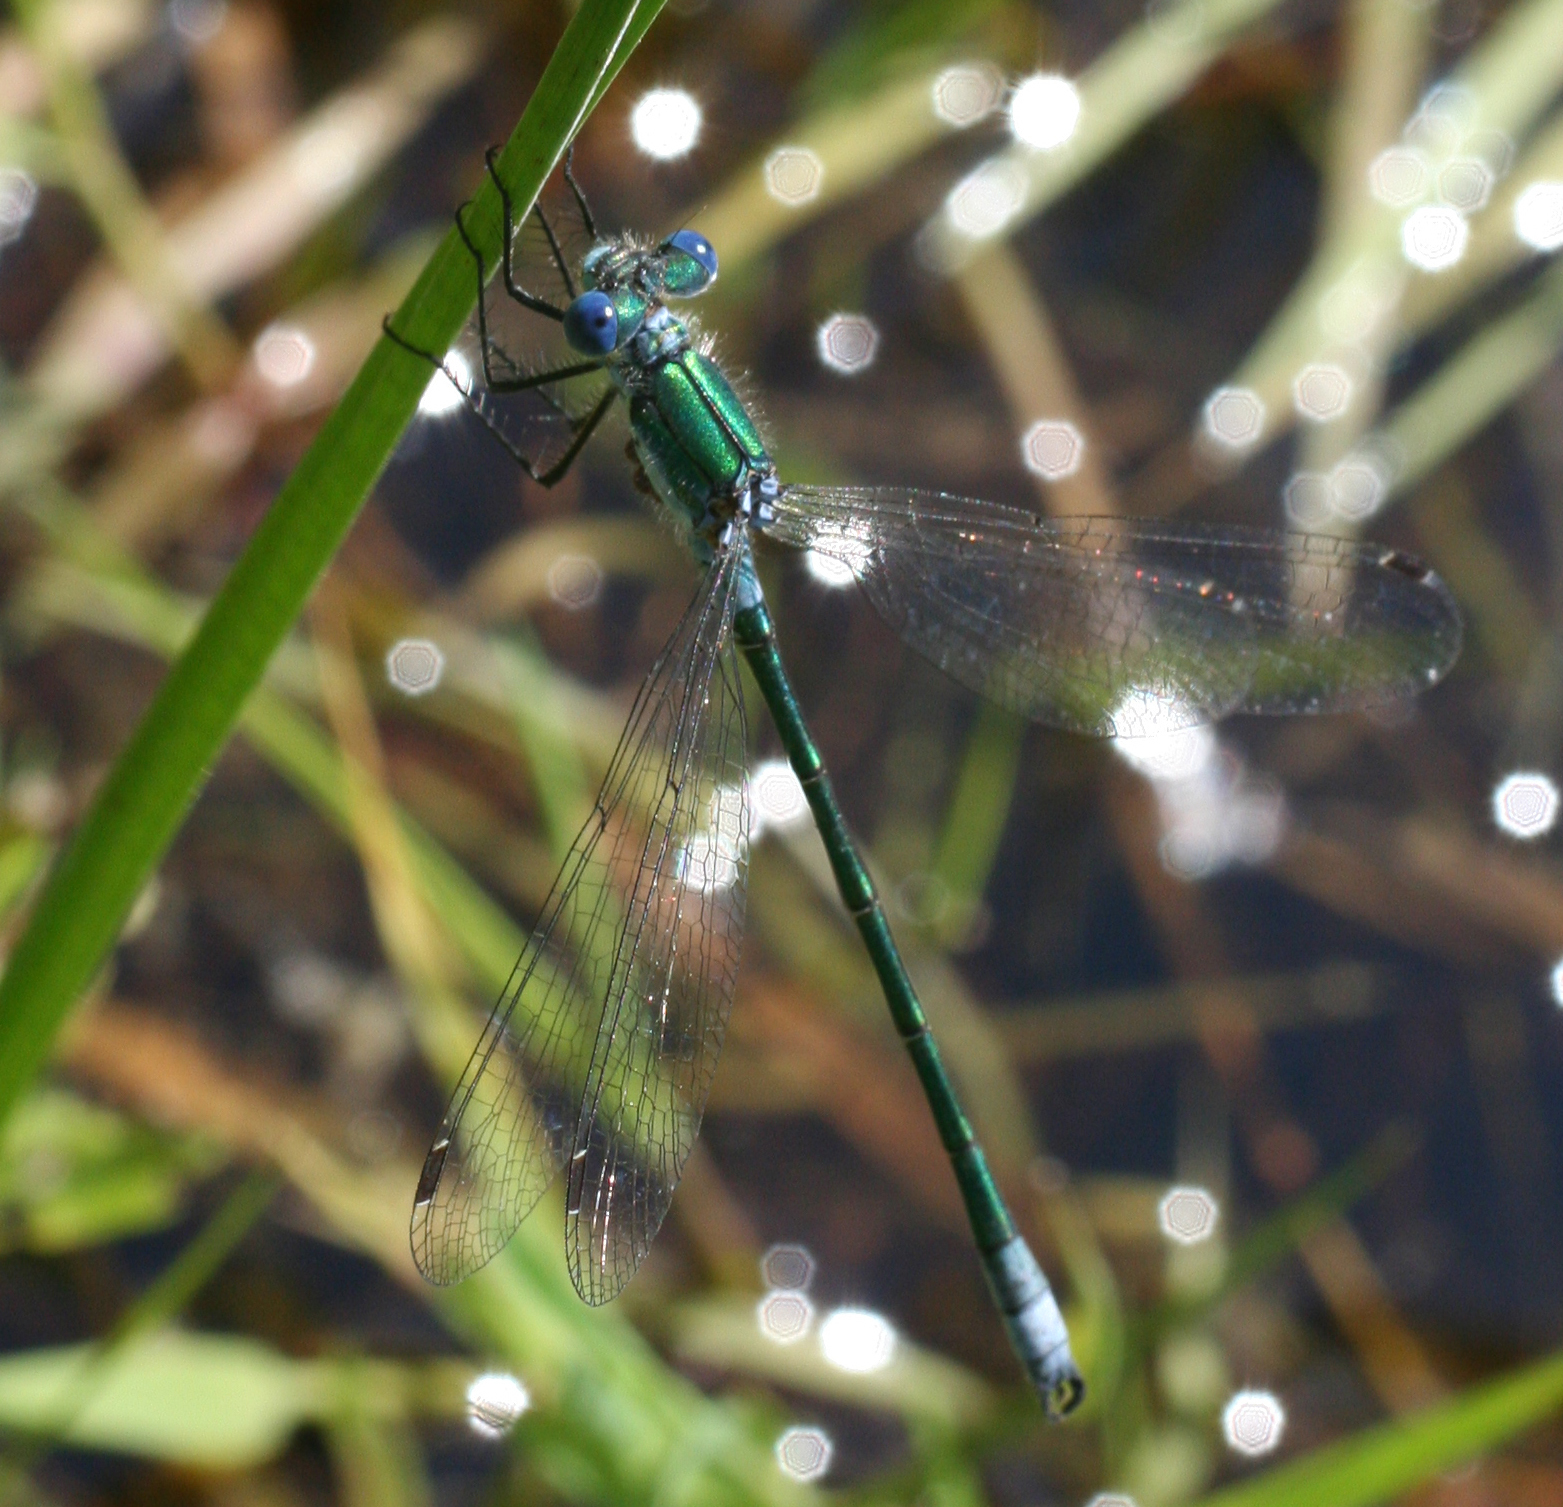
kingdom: Animalia
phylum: Arthropoda
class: Insecta
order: Odonata
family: Lestidae
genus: Lestes
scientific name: Lestes dryas
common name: Scarce emerald damselfly
